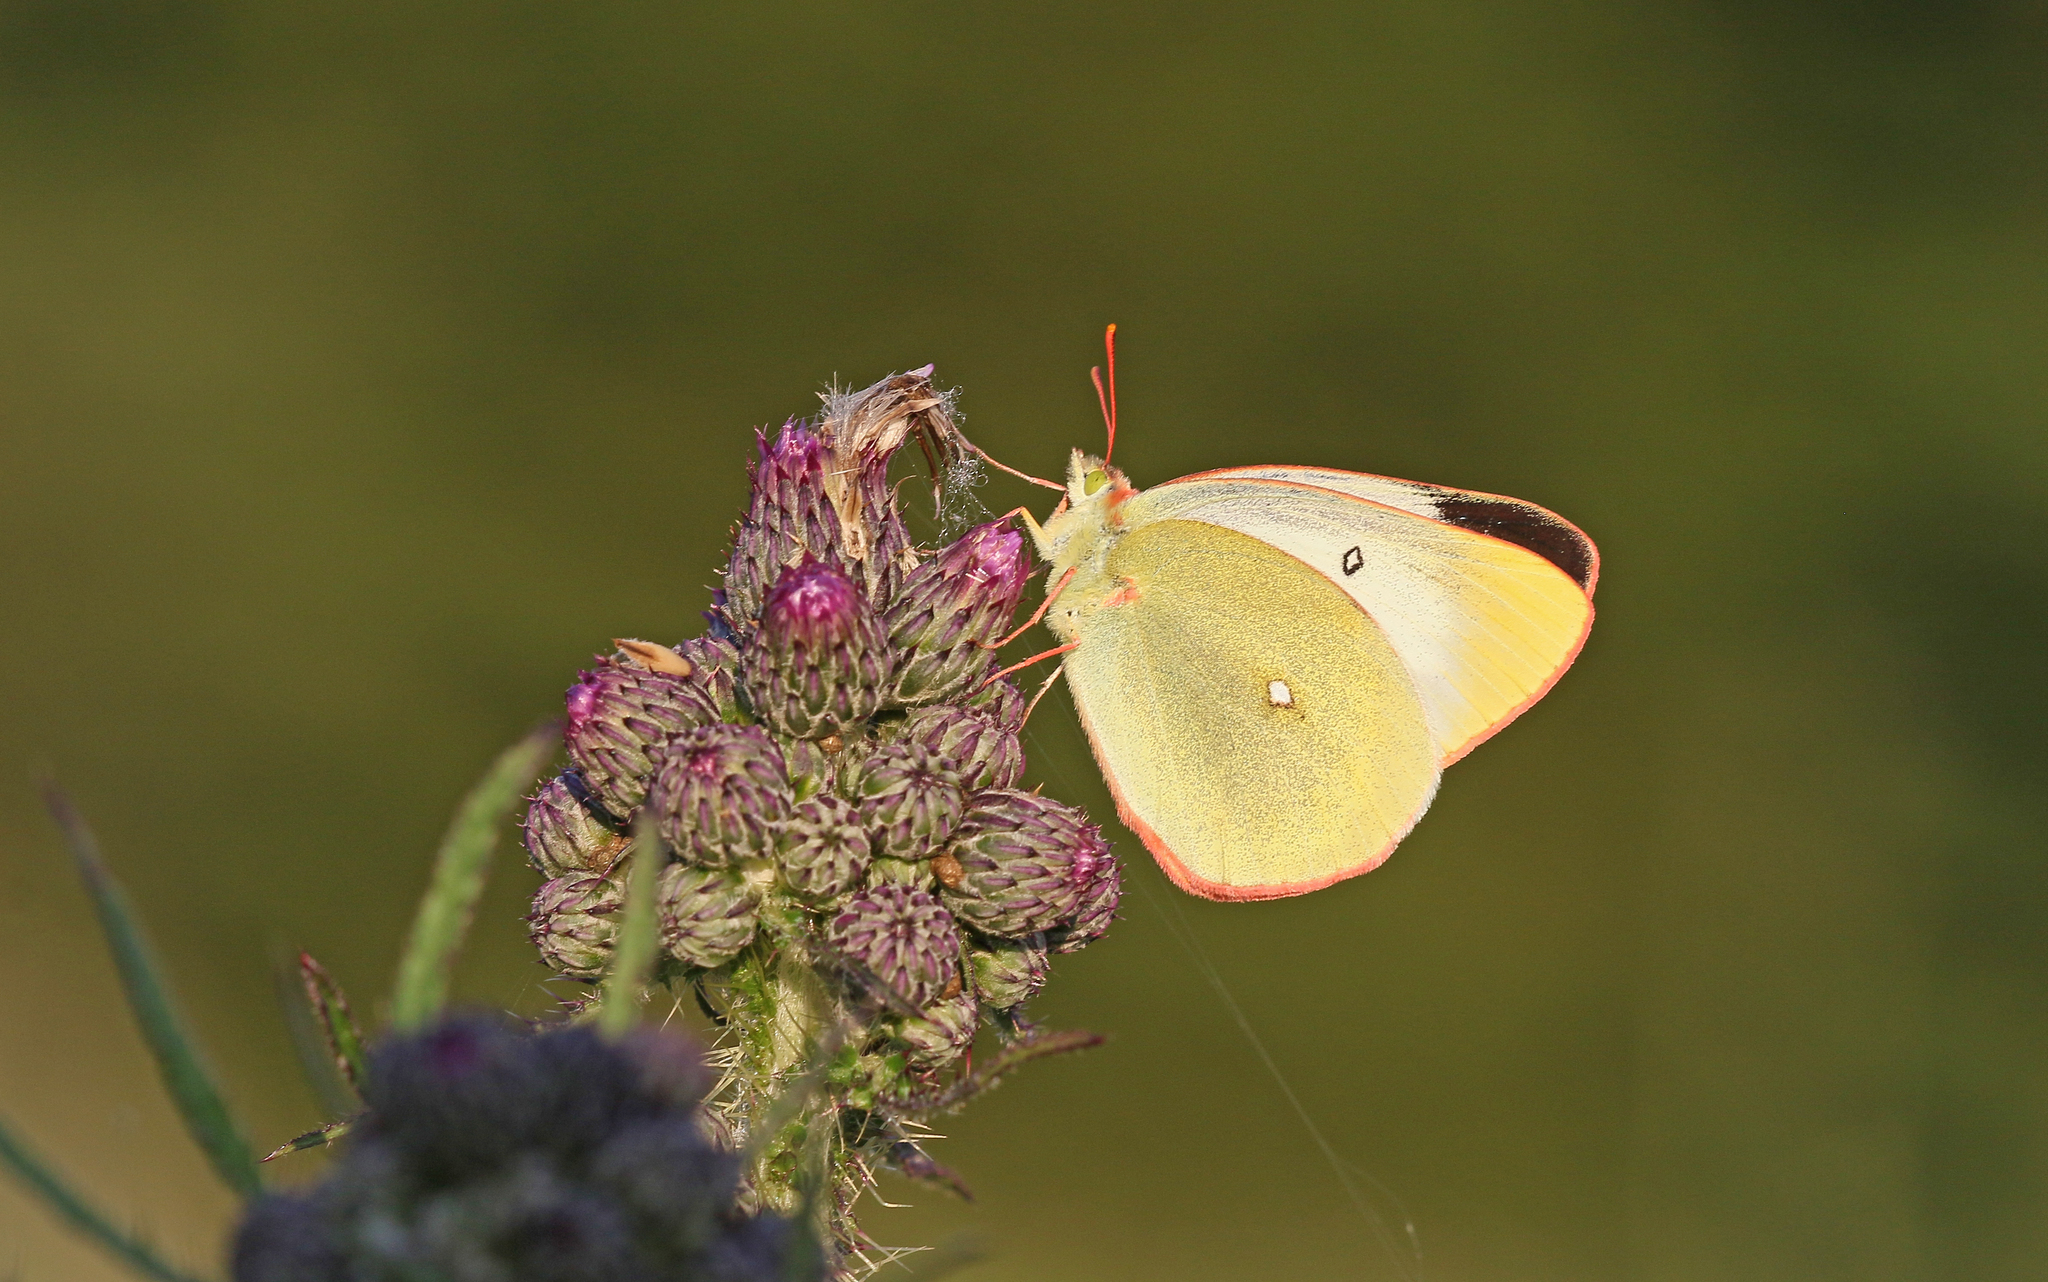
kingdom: Animalia
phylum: Arthropoda
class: Insecta
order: Lepidoptera
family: Pieridae
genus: Colias
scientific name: Colias palaeno
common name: Moorland clouded yellow
